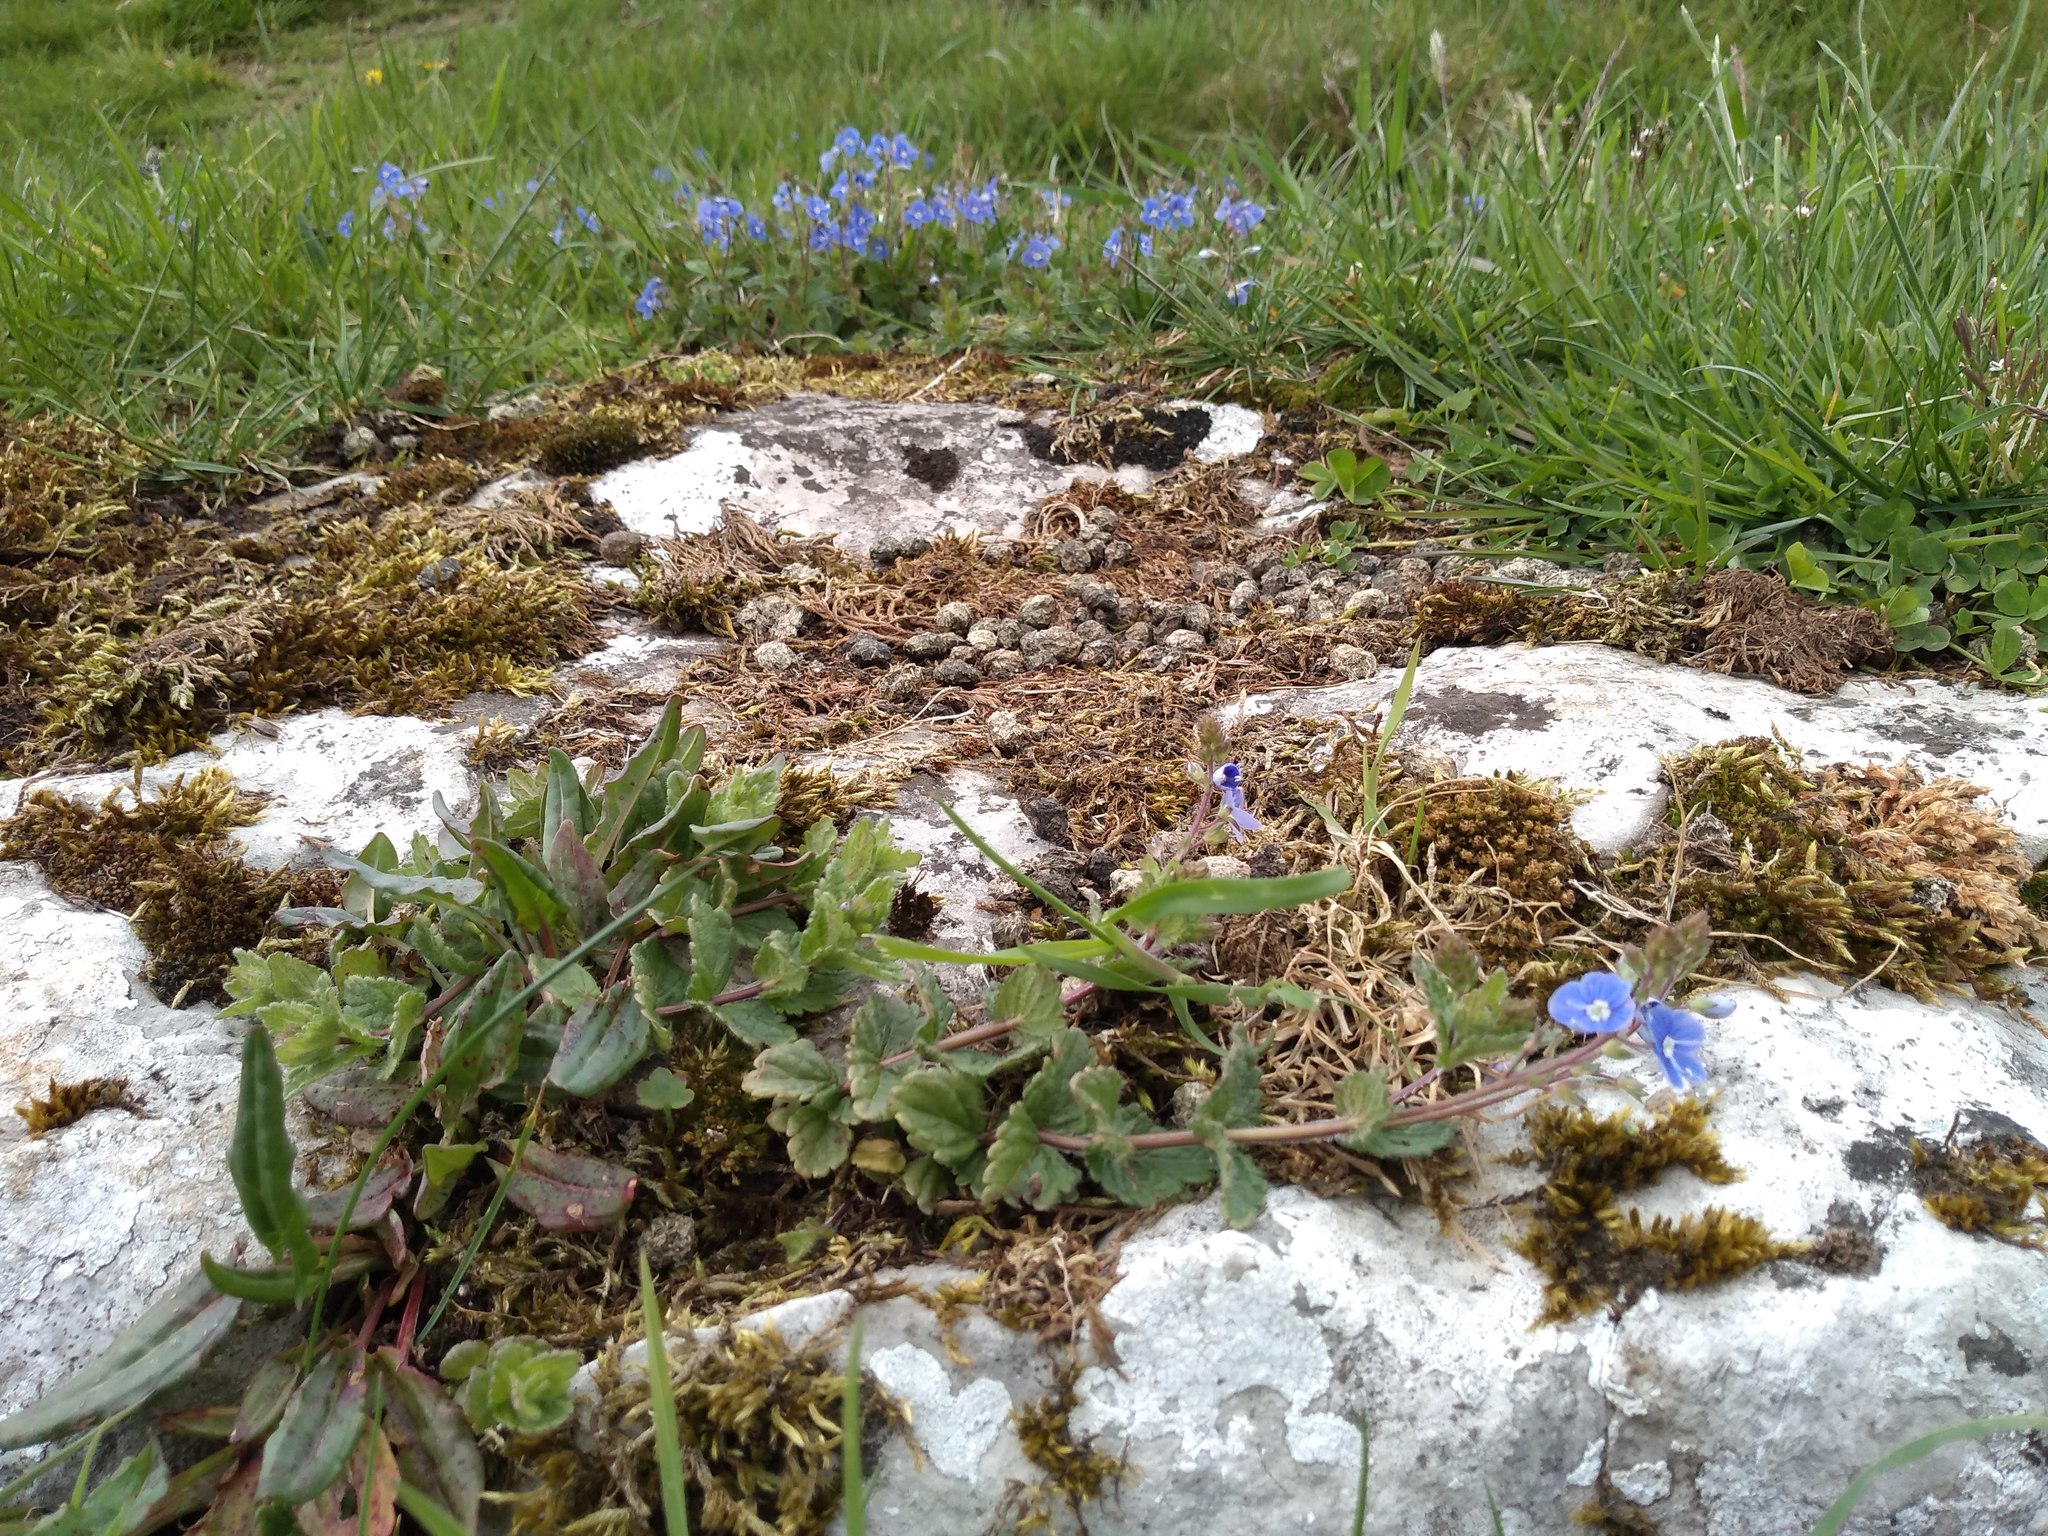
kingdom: Plantae
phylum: Tracheophyta
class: Magnoliopsida
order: Lamiales
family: Plantaginaceae
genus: Veronica
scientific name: Veronica chamaedrys
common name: Germander speedwell
